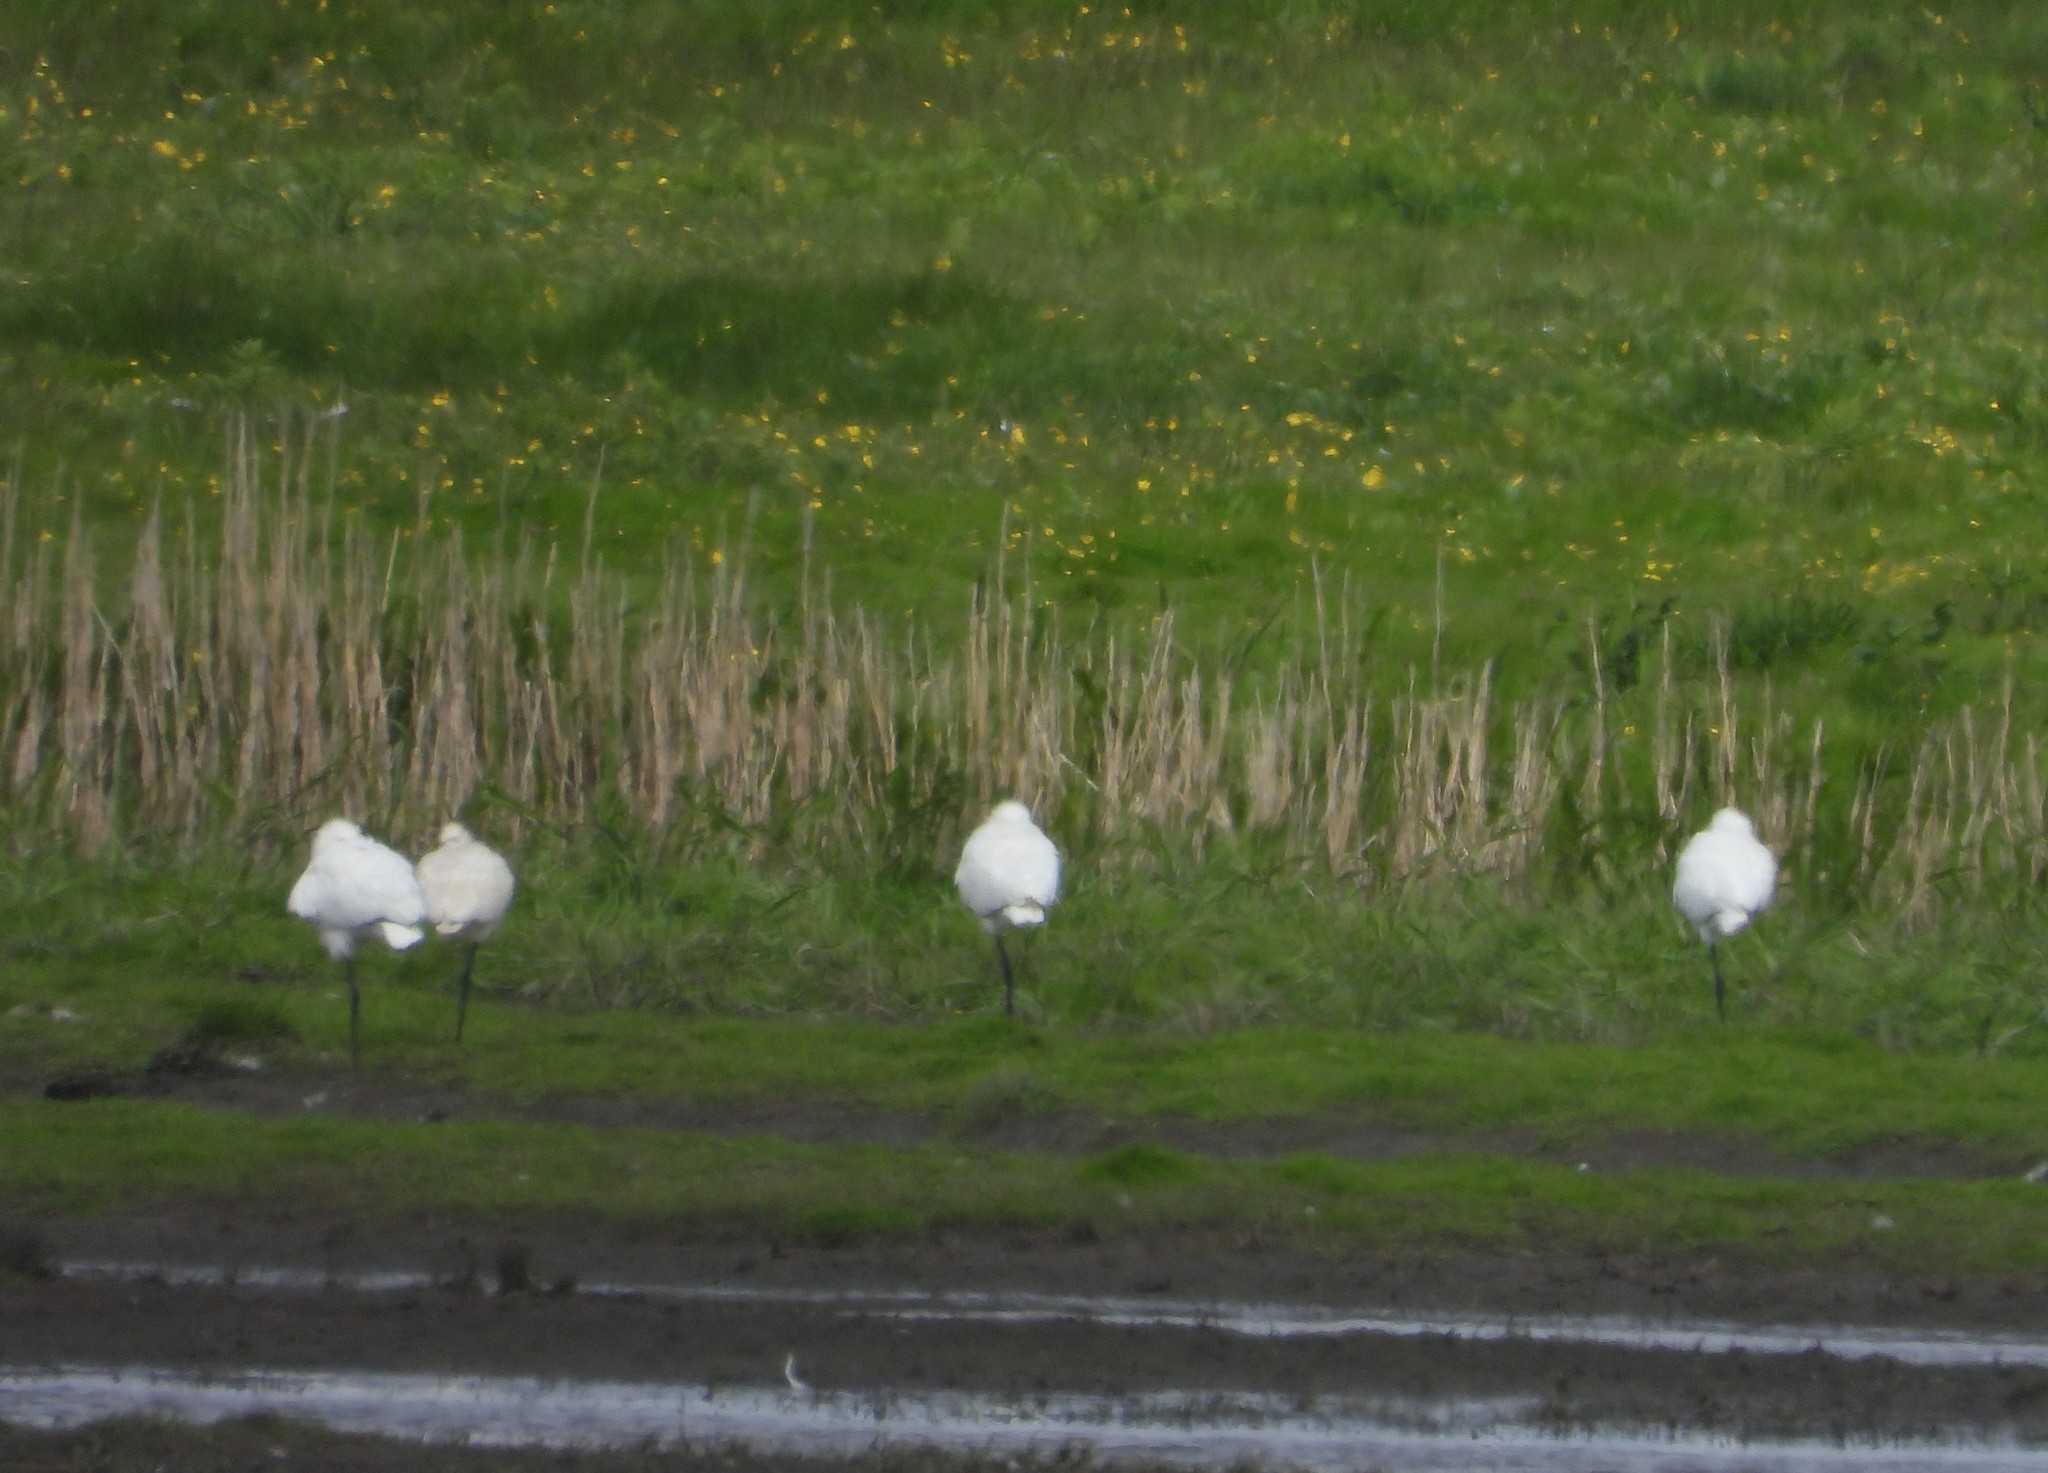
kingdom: Animalia
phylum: Chordata
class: Aves
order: Pelecaniformes
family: Threskiornithidae
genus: Platalea
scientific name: Platalea leucorodia
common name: Eurasian spoonbill
